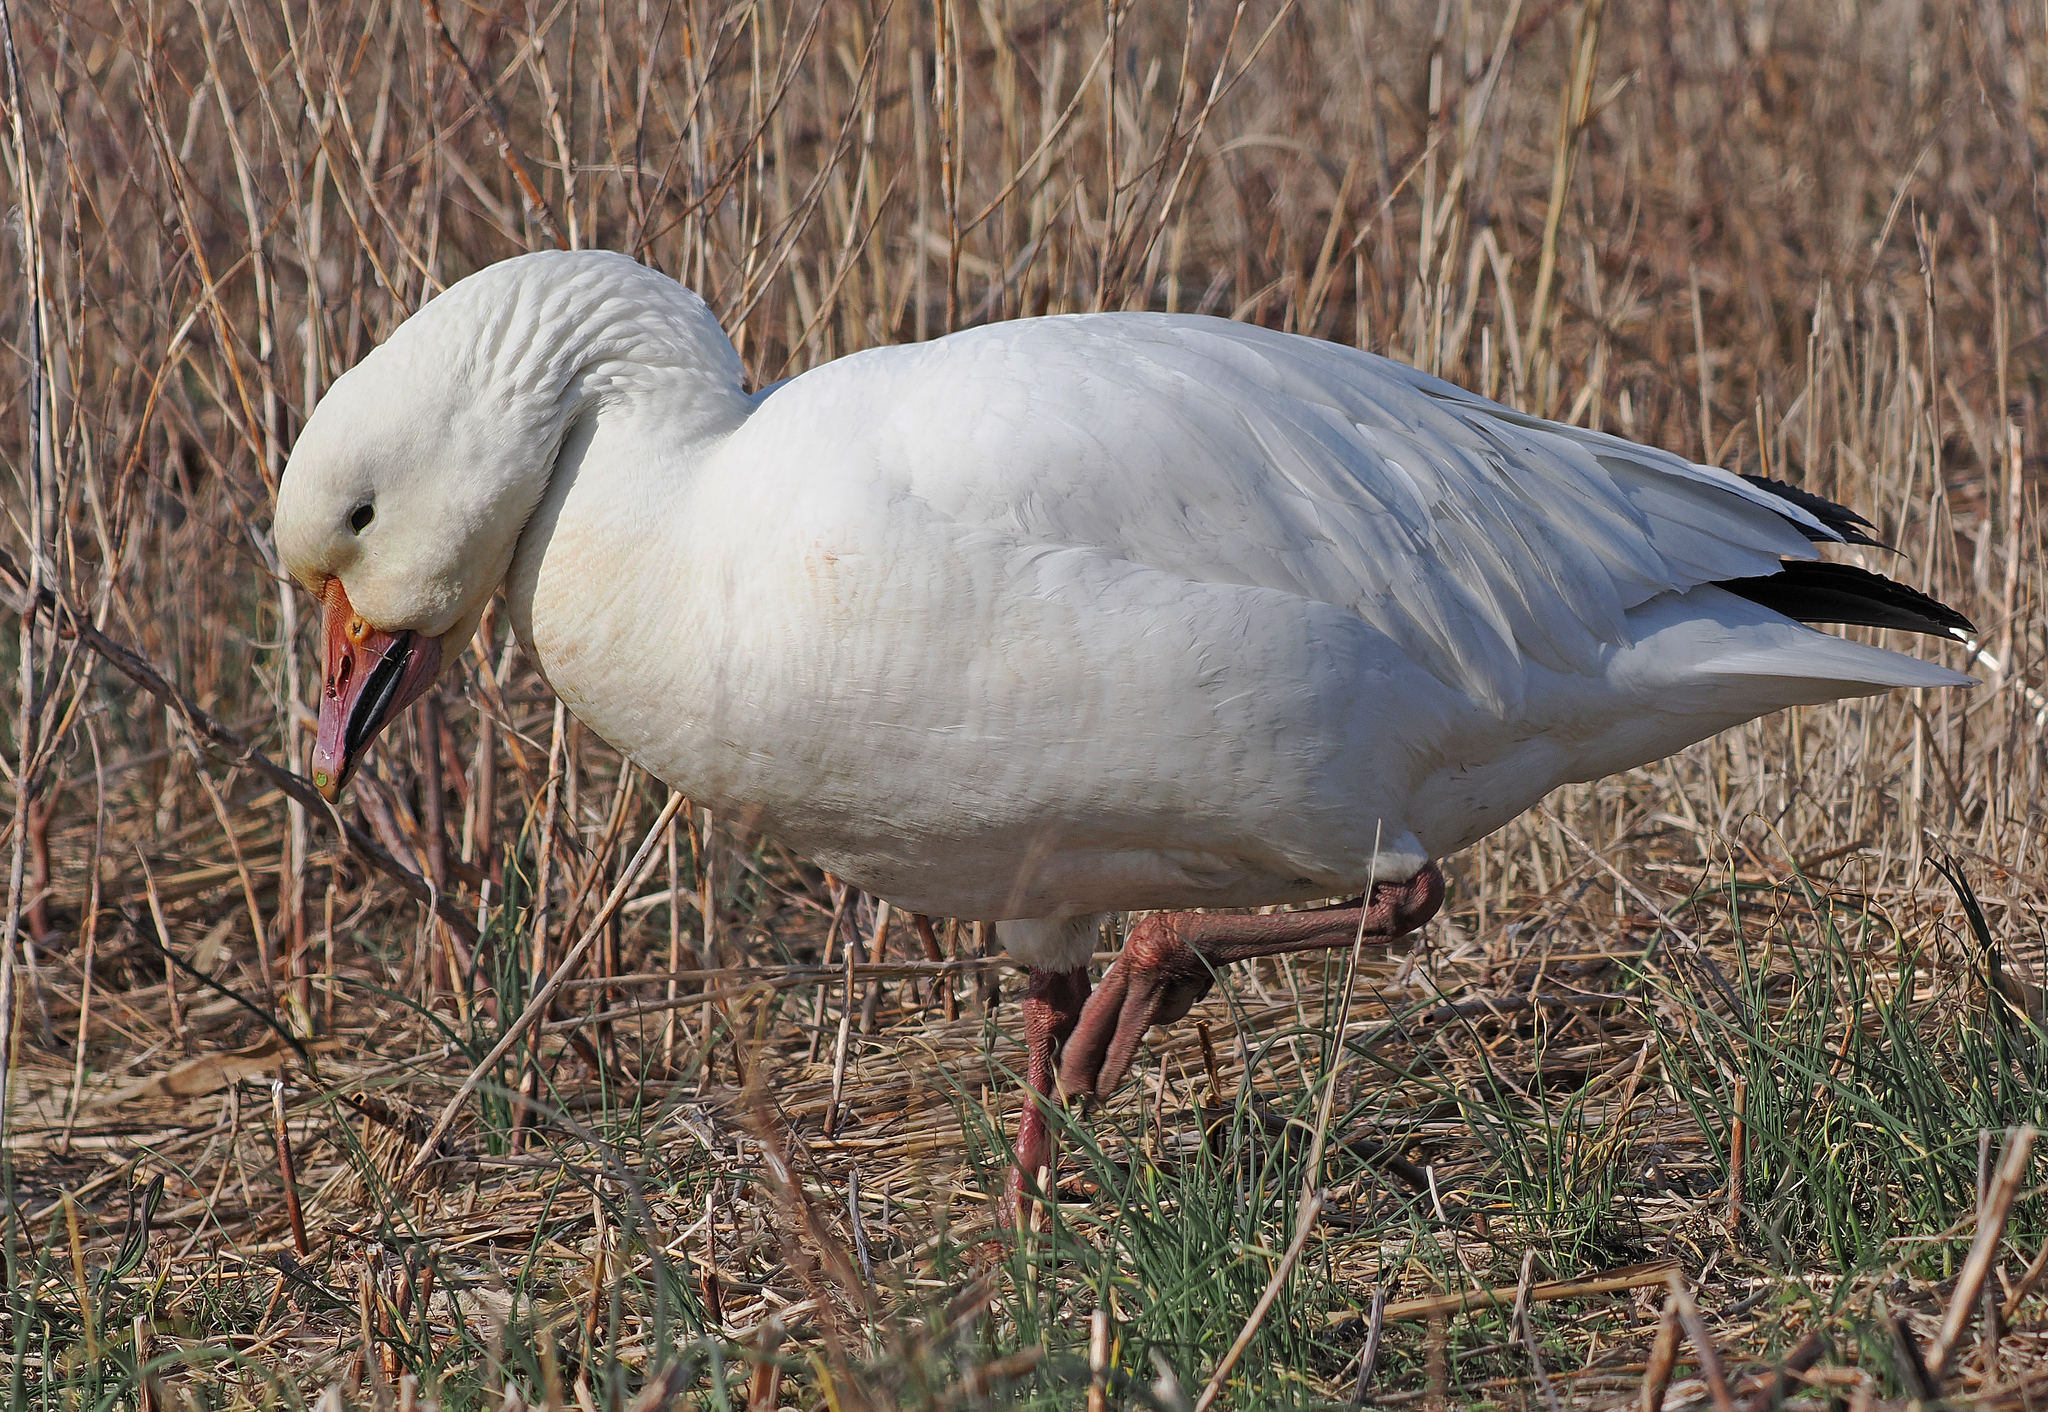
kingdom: Animalia
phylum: Chordata
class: Aves
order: Anseriformes
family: Anatidae
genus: Anser
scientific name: Anser caerulescens
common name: Snow goose
